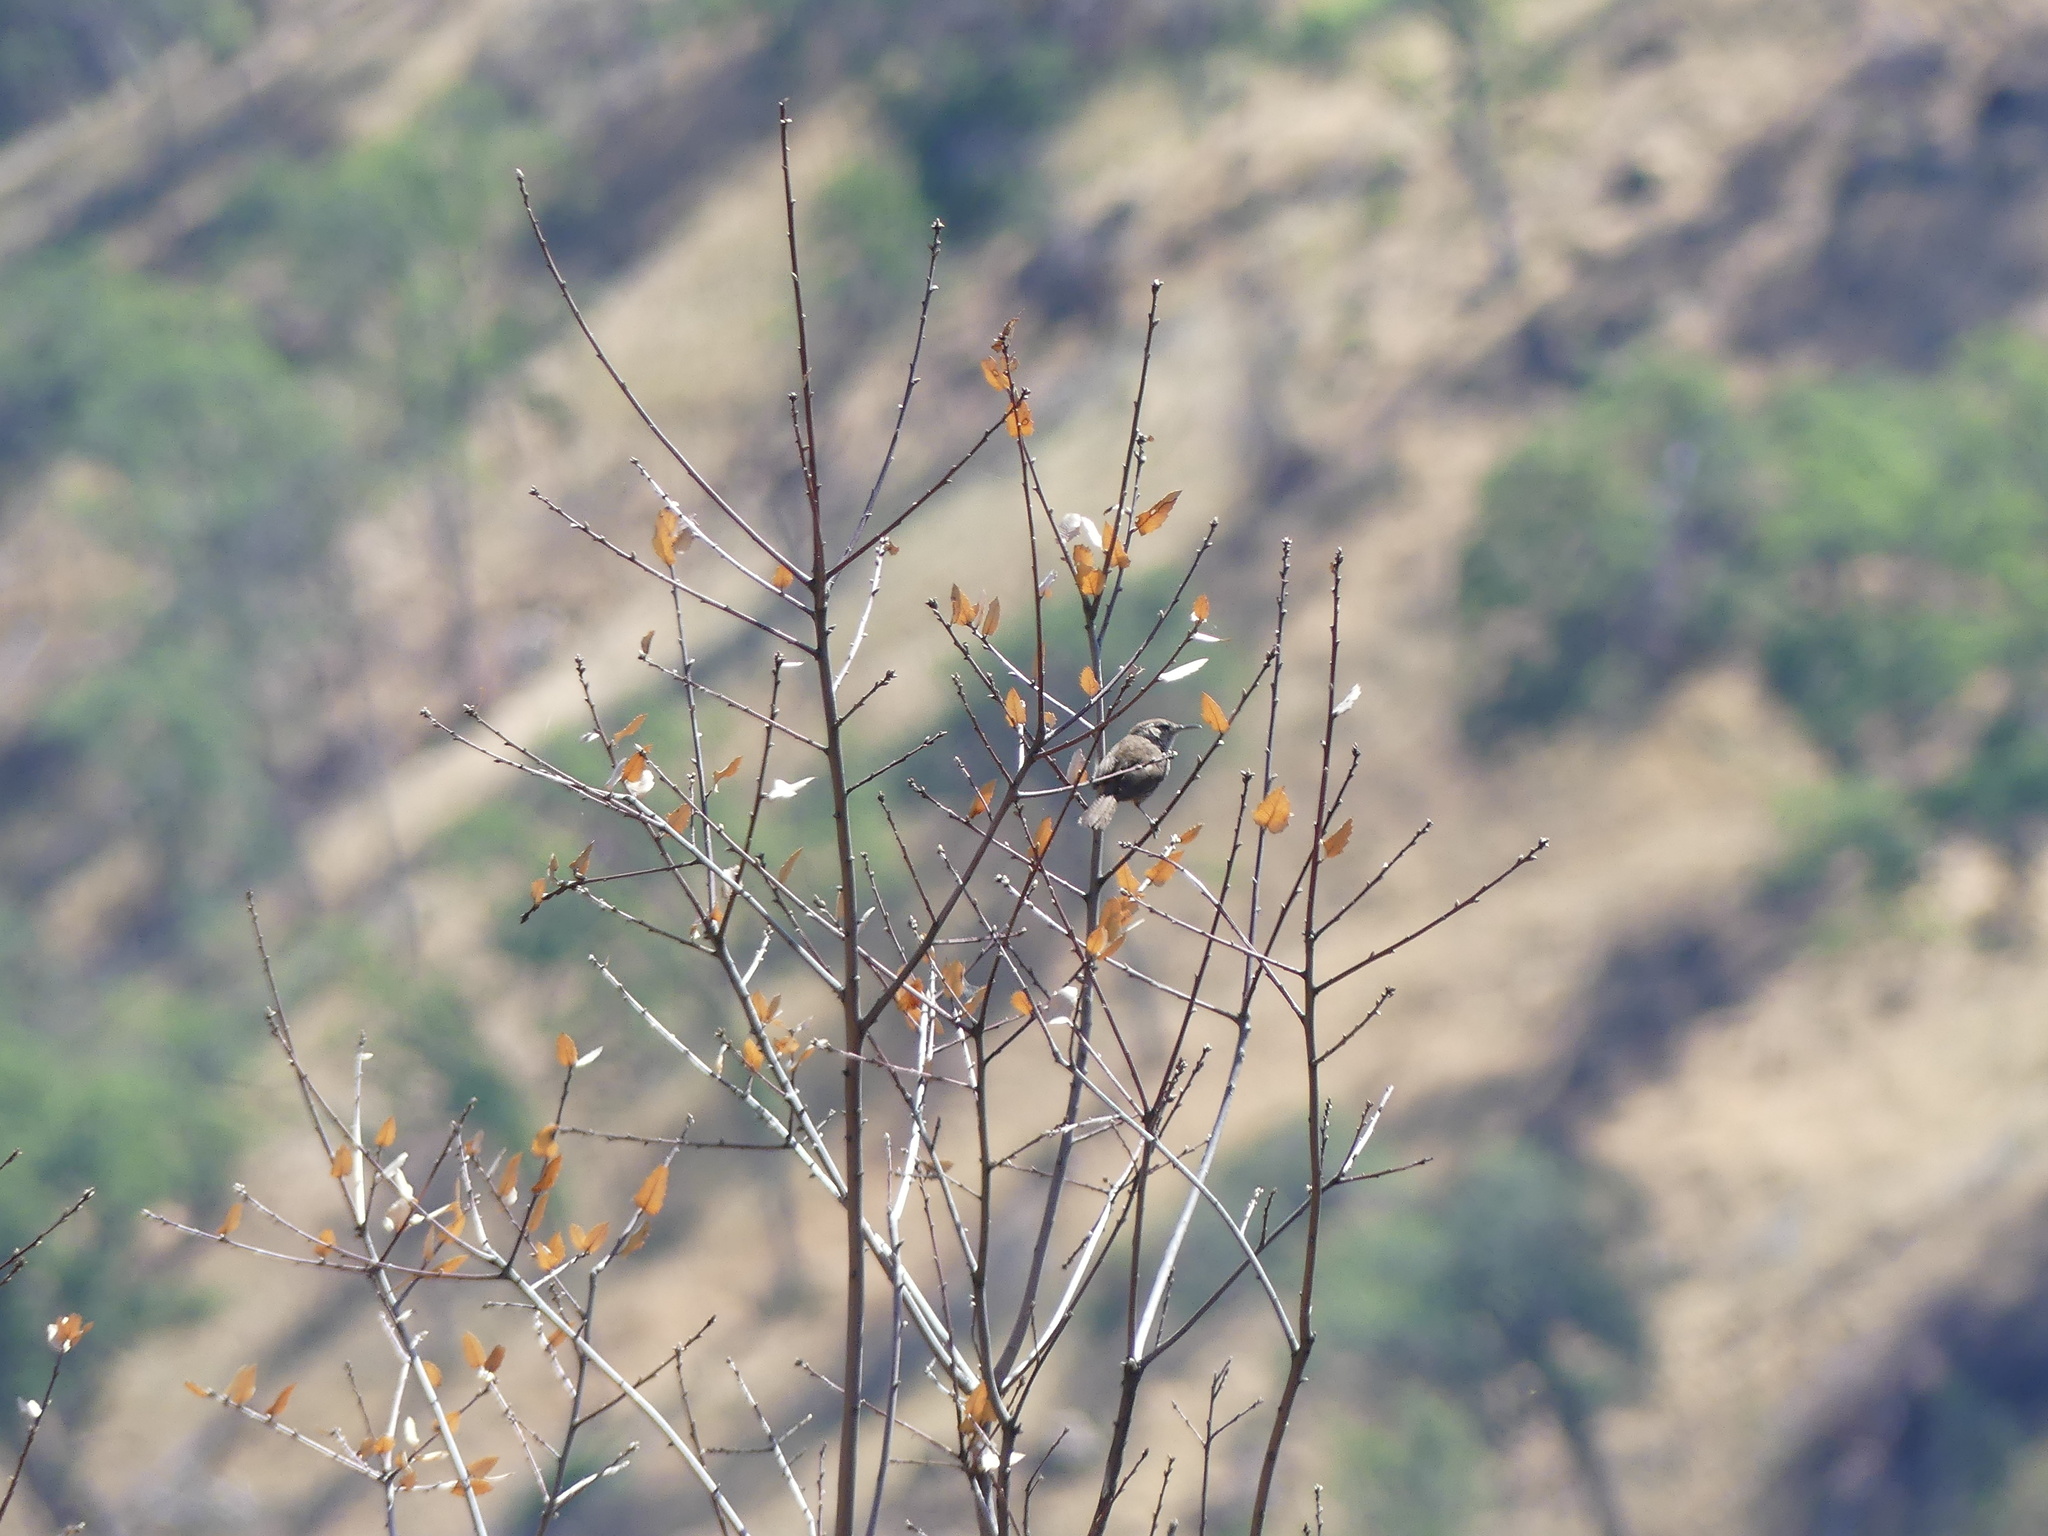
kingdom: Animalia
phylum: Chordata
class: Aves
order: Passeriformes
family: Troglodytidae
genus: Thryomanes
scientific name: Thryomanes bewickii
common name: Bewick's wren
